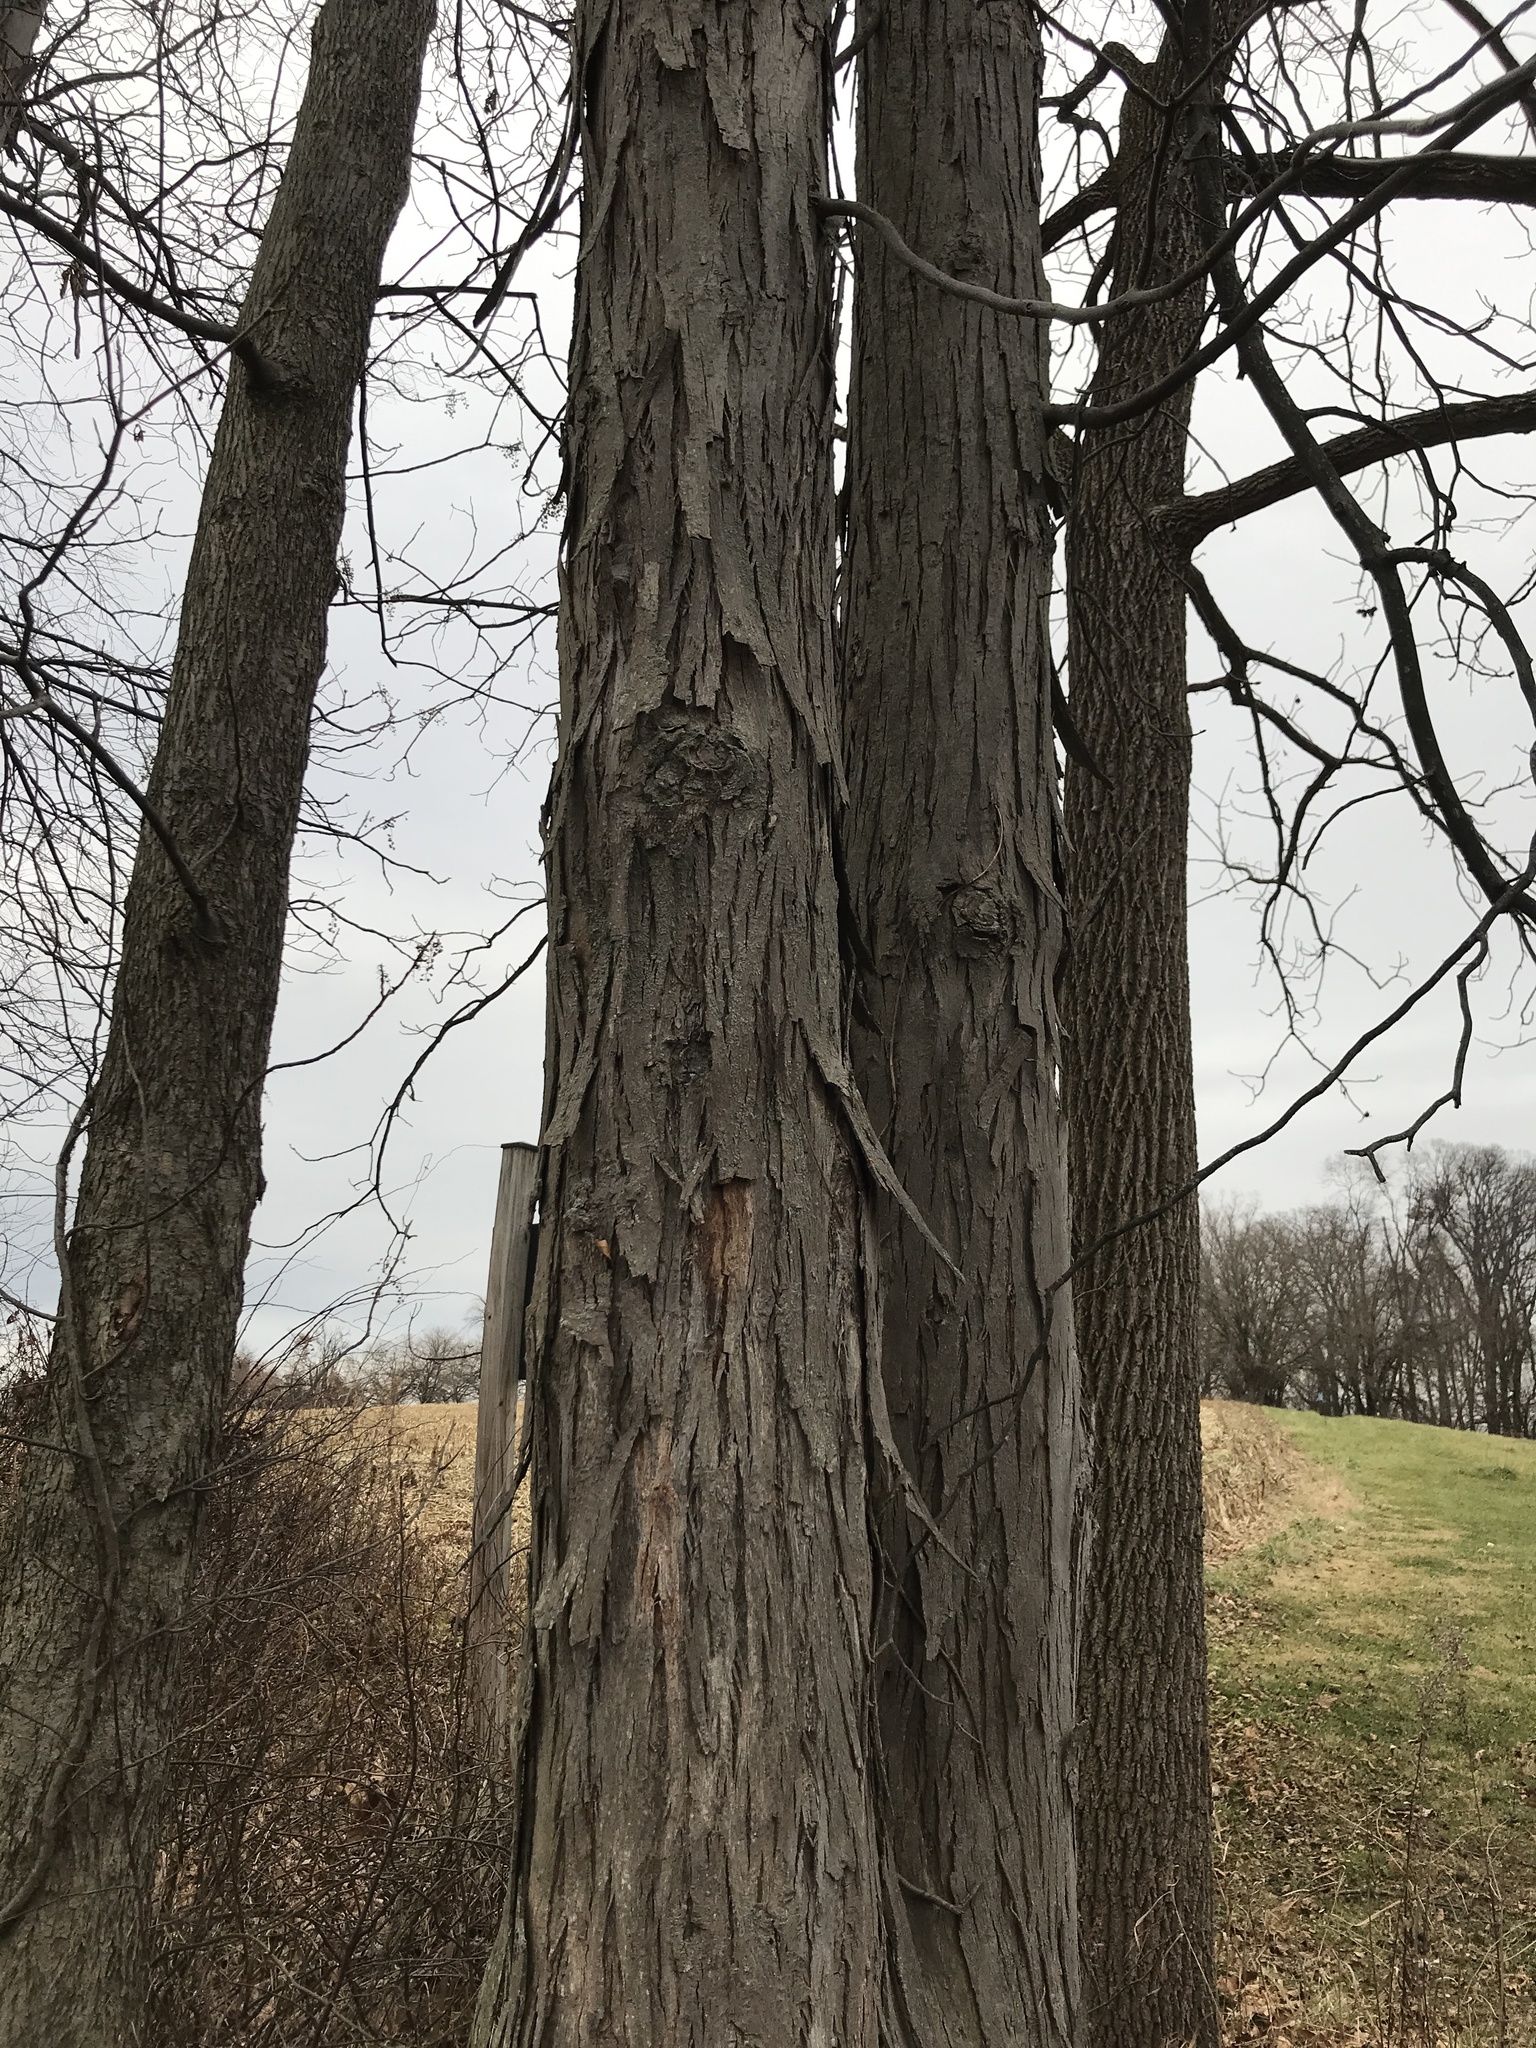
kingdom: Plantae
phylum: Tracheophyta
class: Magnoliopsida
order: Fagales
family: Juglandaceae
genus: Carya
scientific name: Carya ovata
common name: Shagbark hickory
